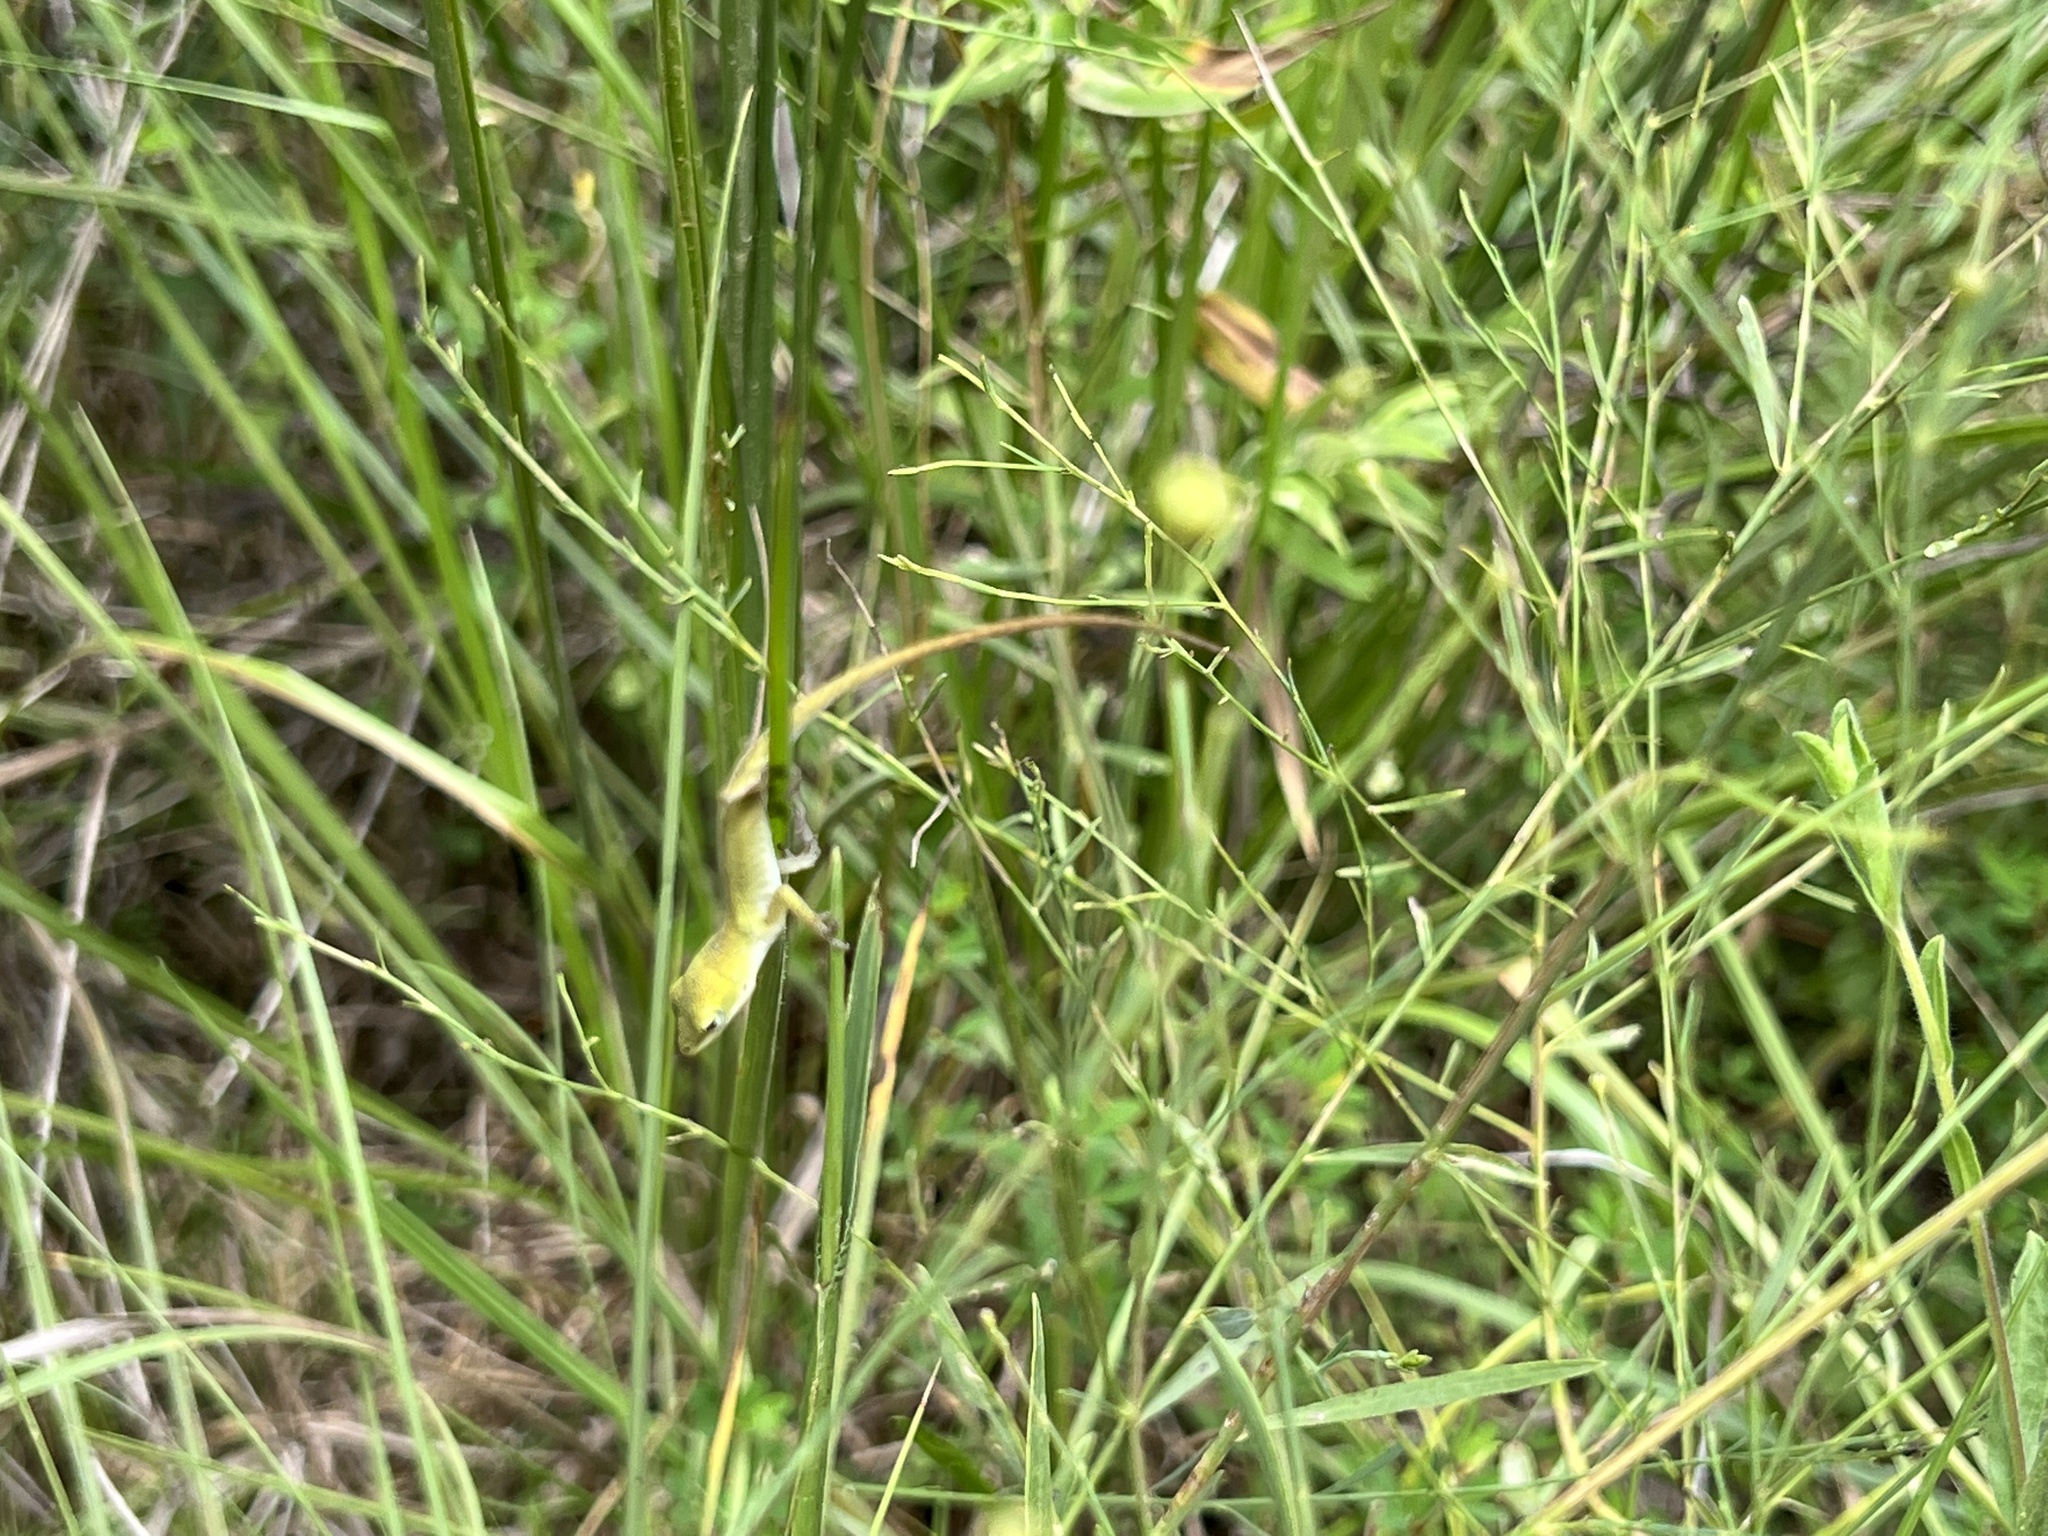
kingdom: Animalia
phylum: Chordata
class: Squamata
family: Dactyloidae
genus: Anolis
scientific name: Anolis carolinensis
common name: Green anole
